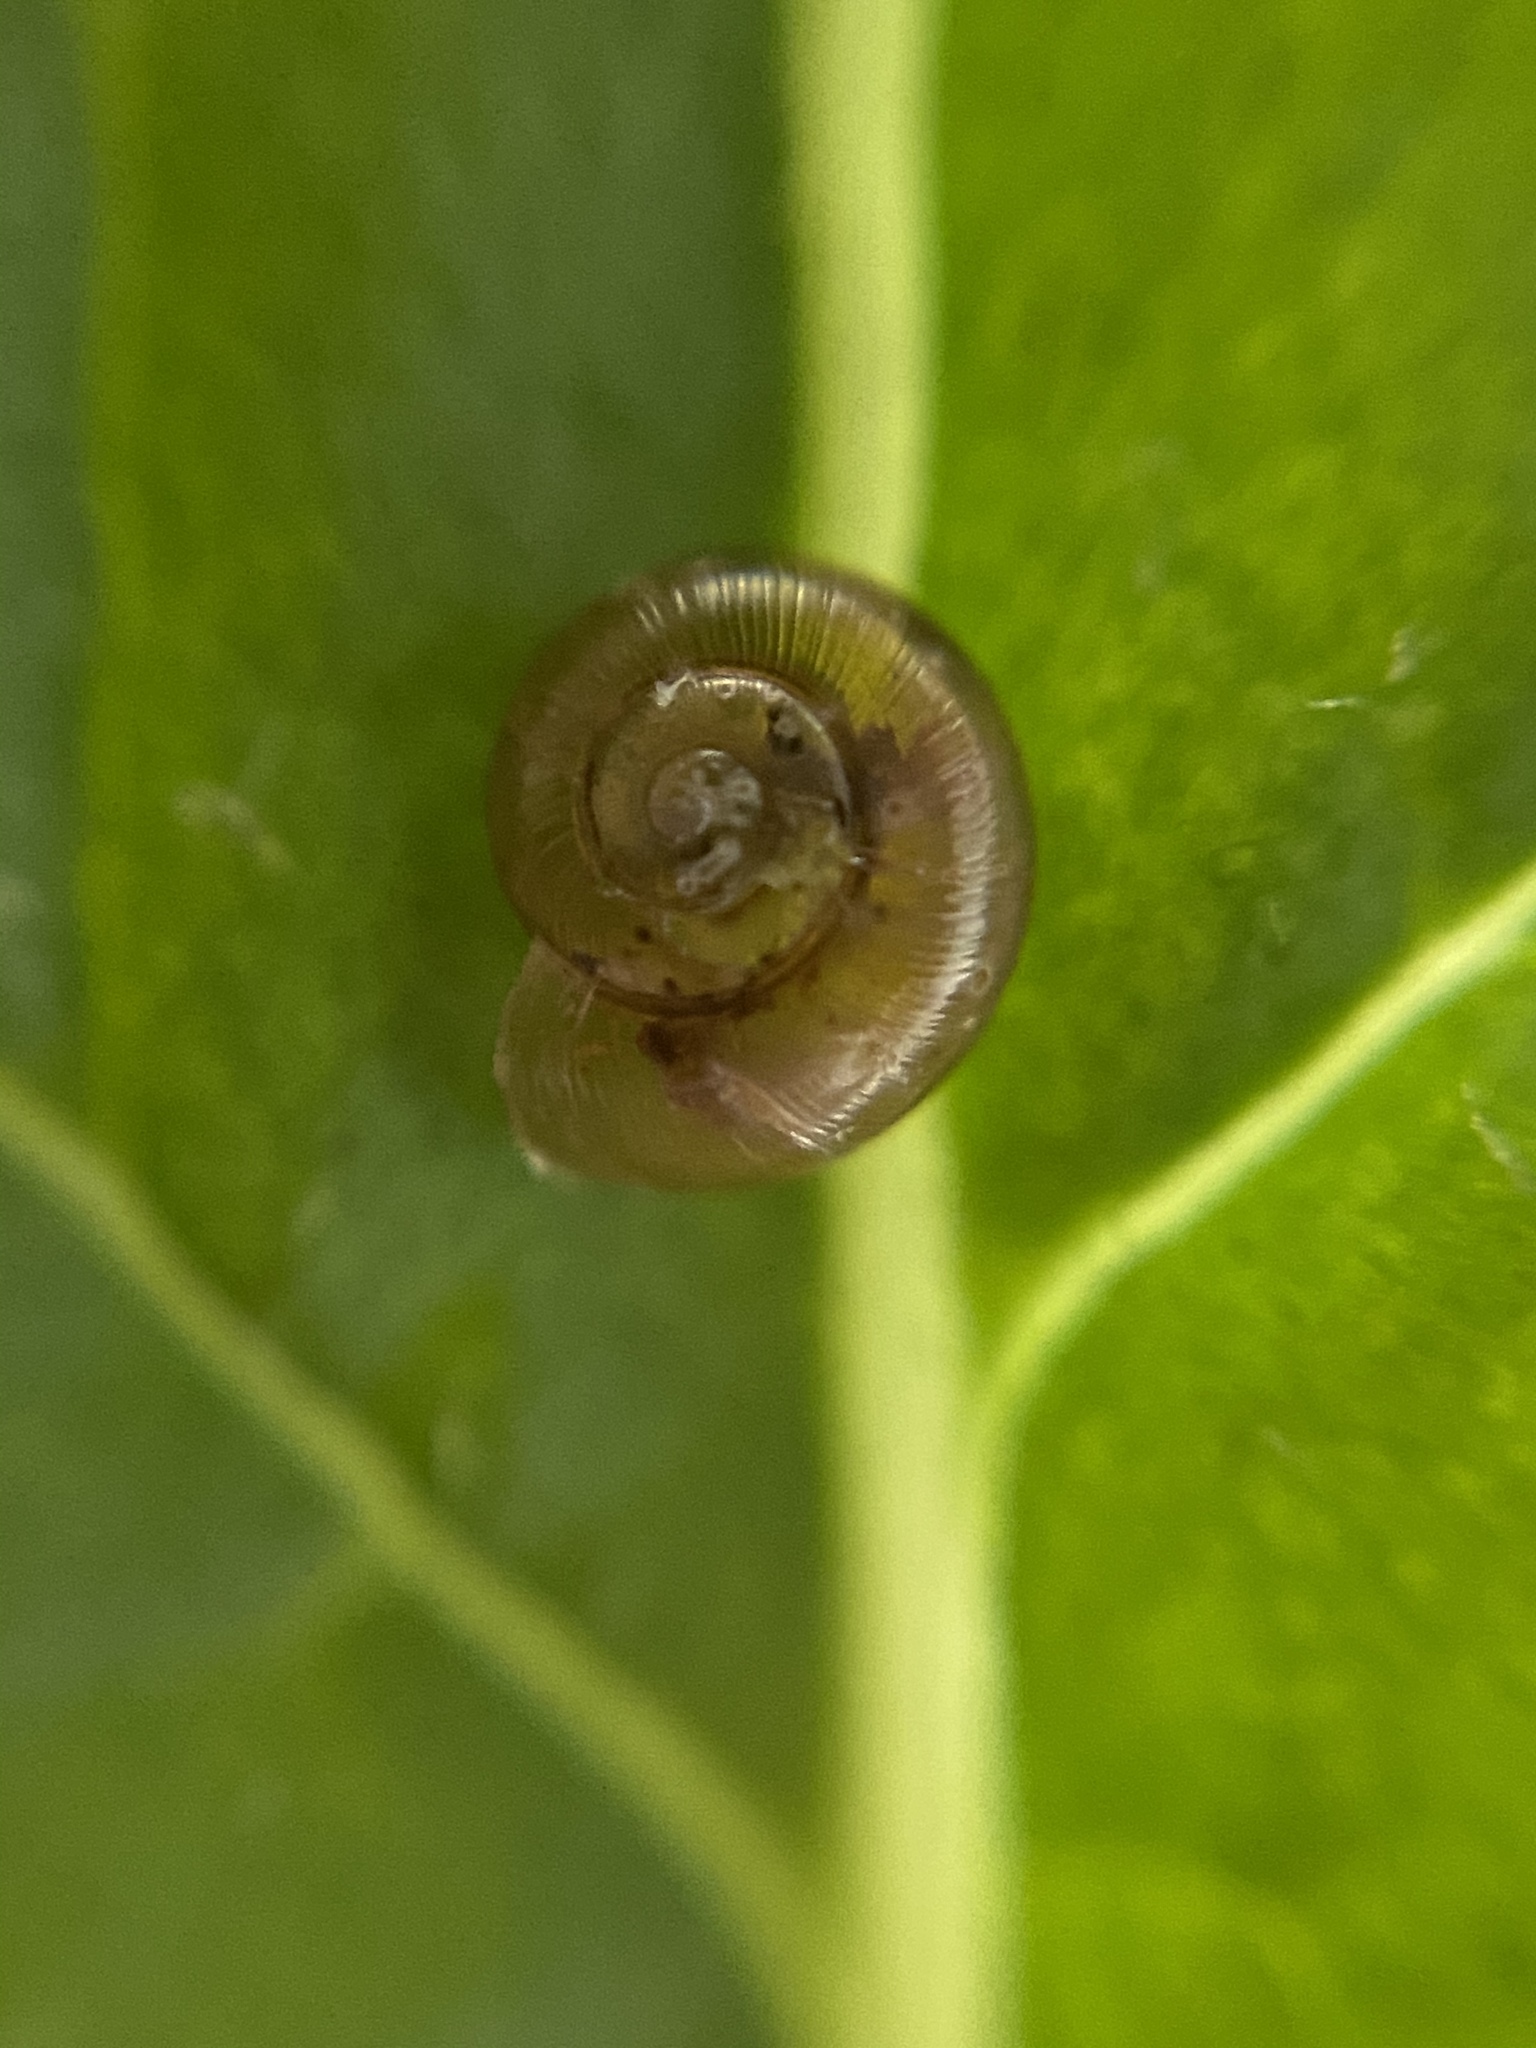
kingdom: Animalia
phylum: Mollusca
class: Gastropoda
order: Stylommatophora
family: Gastrodontidae
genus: Zonitoides
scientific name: Zonitoides arboreus
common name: Quick gloss
